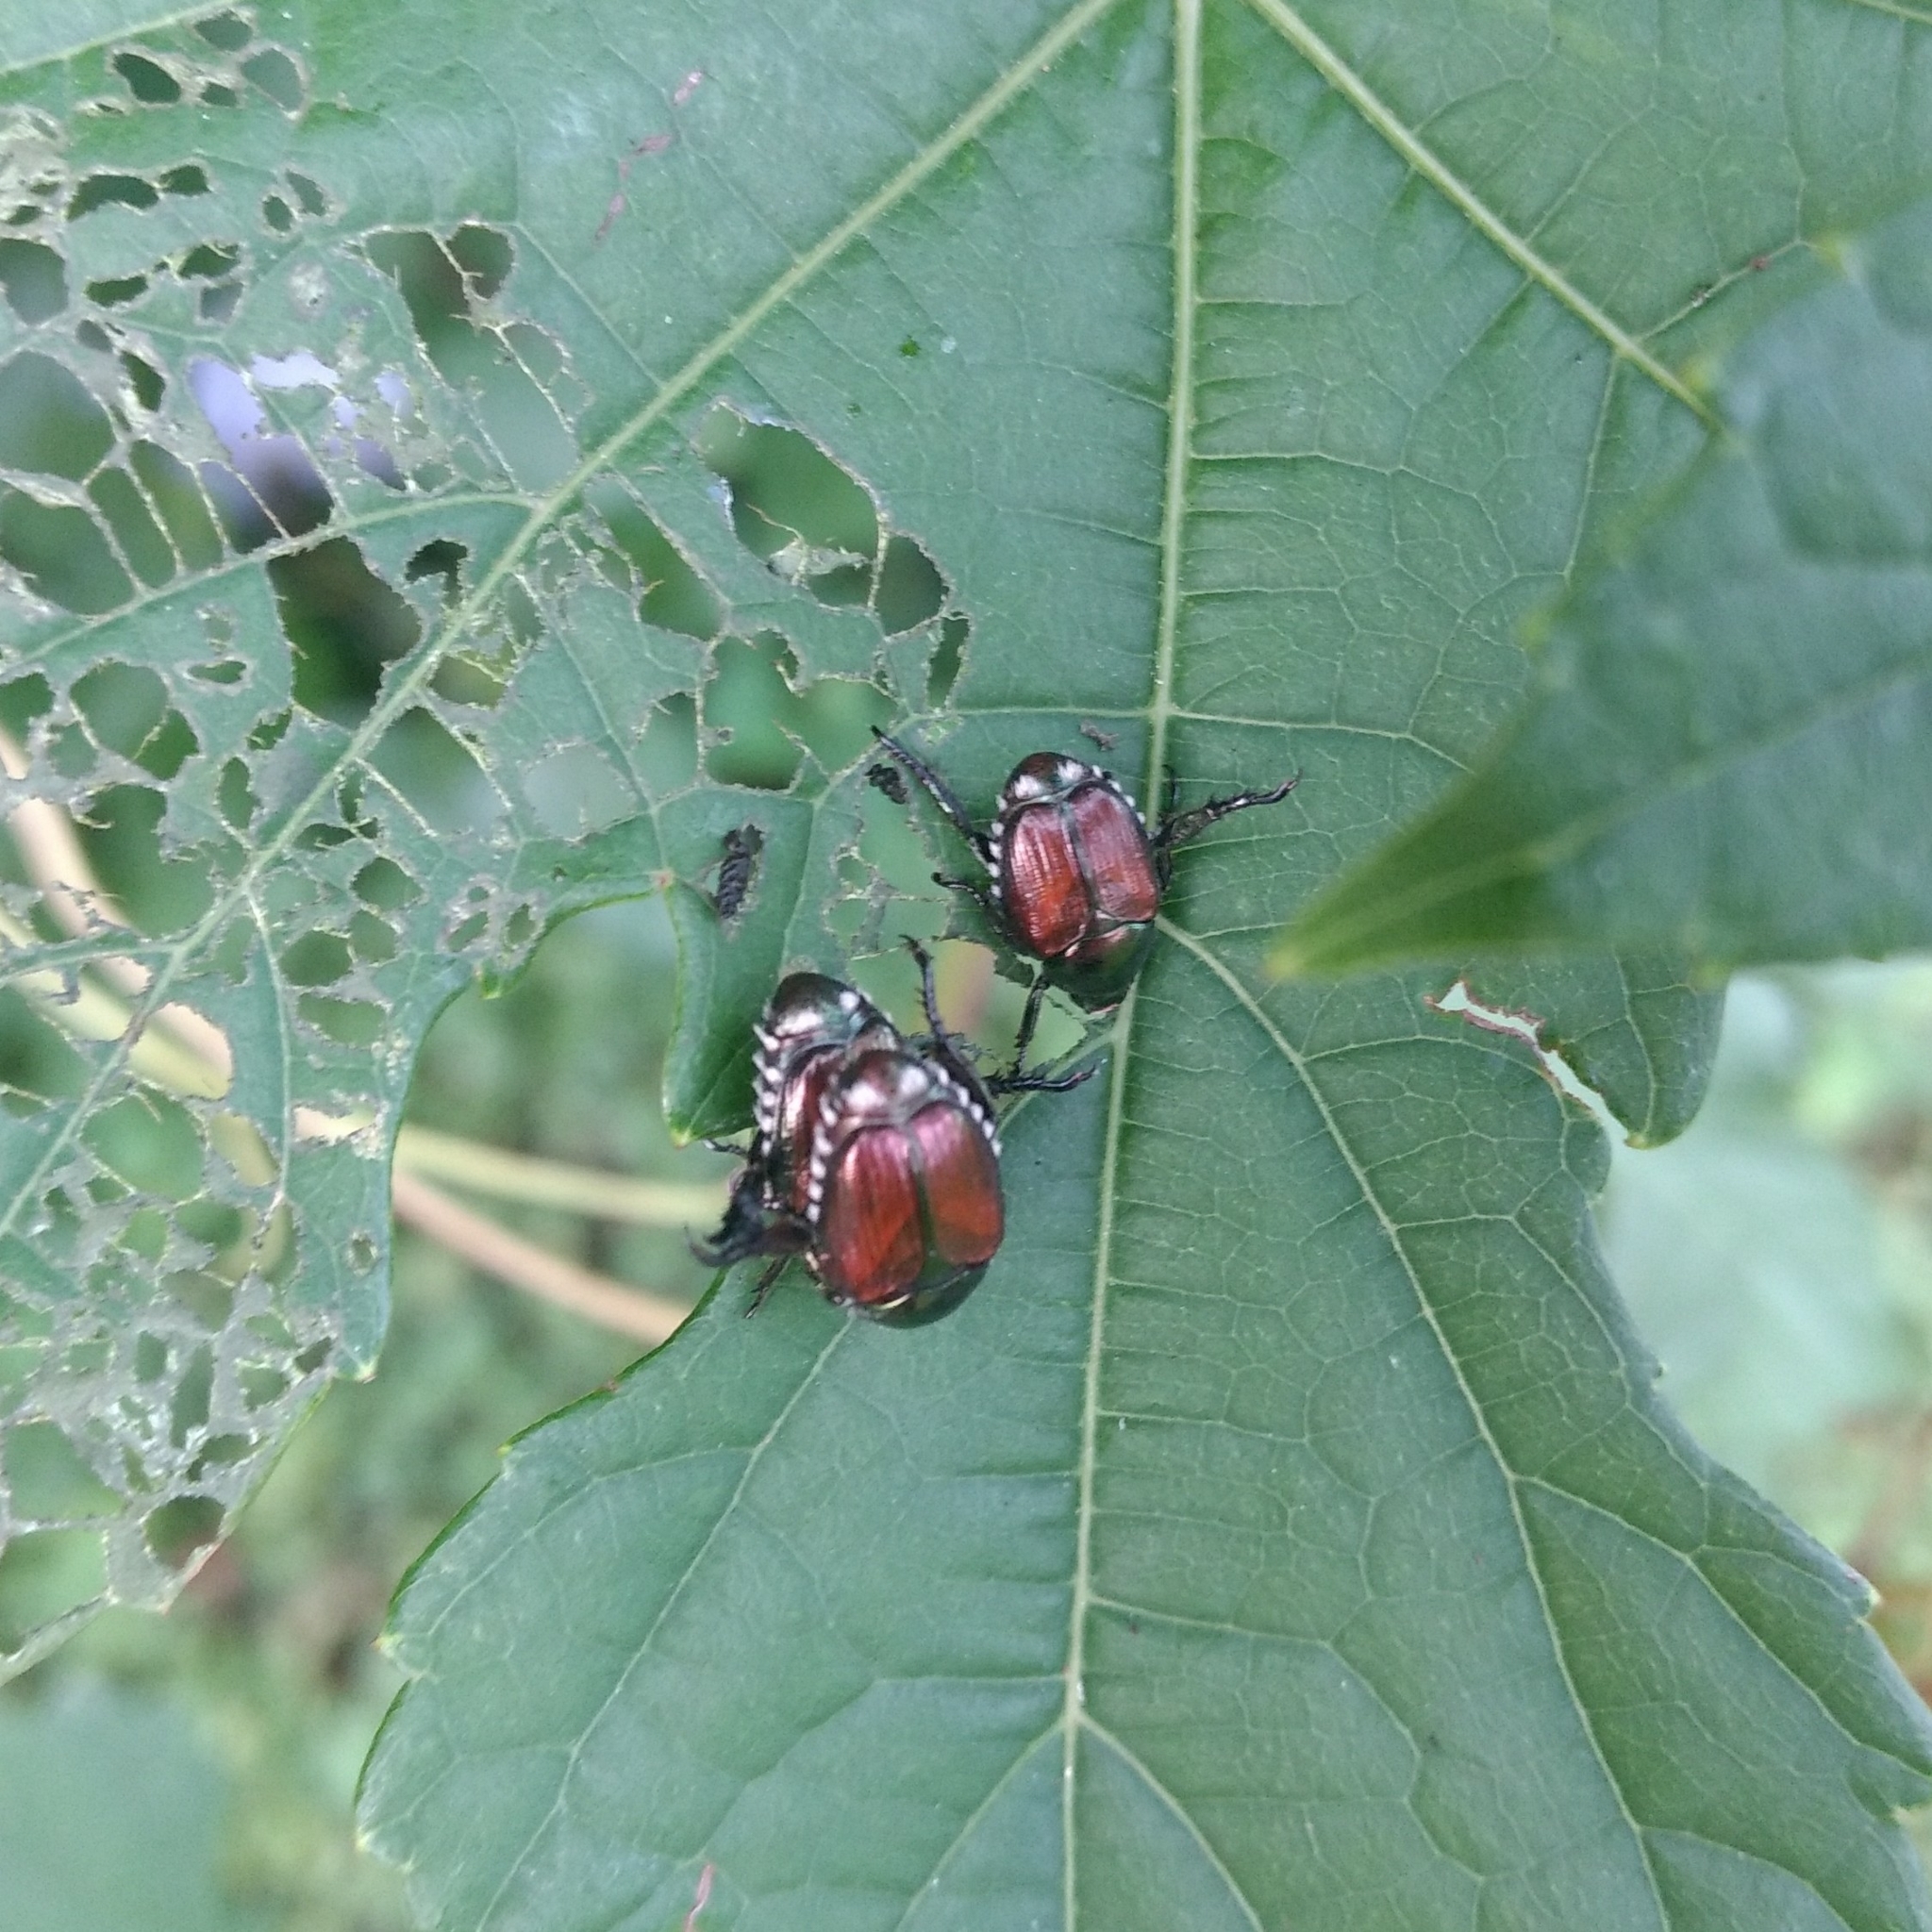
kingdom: Animalia
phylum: Arthropoda
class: Insecta
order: Coleoptera
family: Scarabaeidae
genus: Popillia
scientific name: Popillia japonica
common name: Japanese beetle
